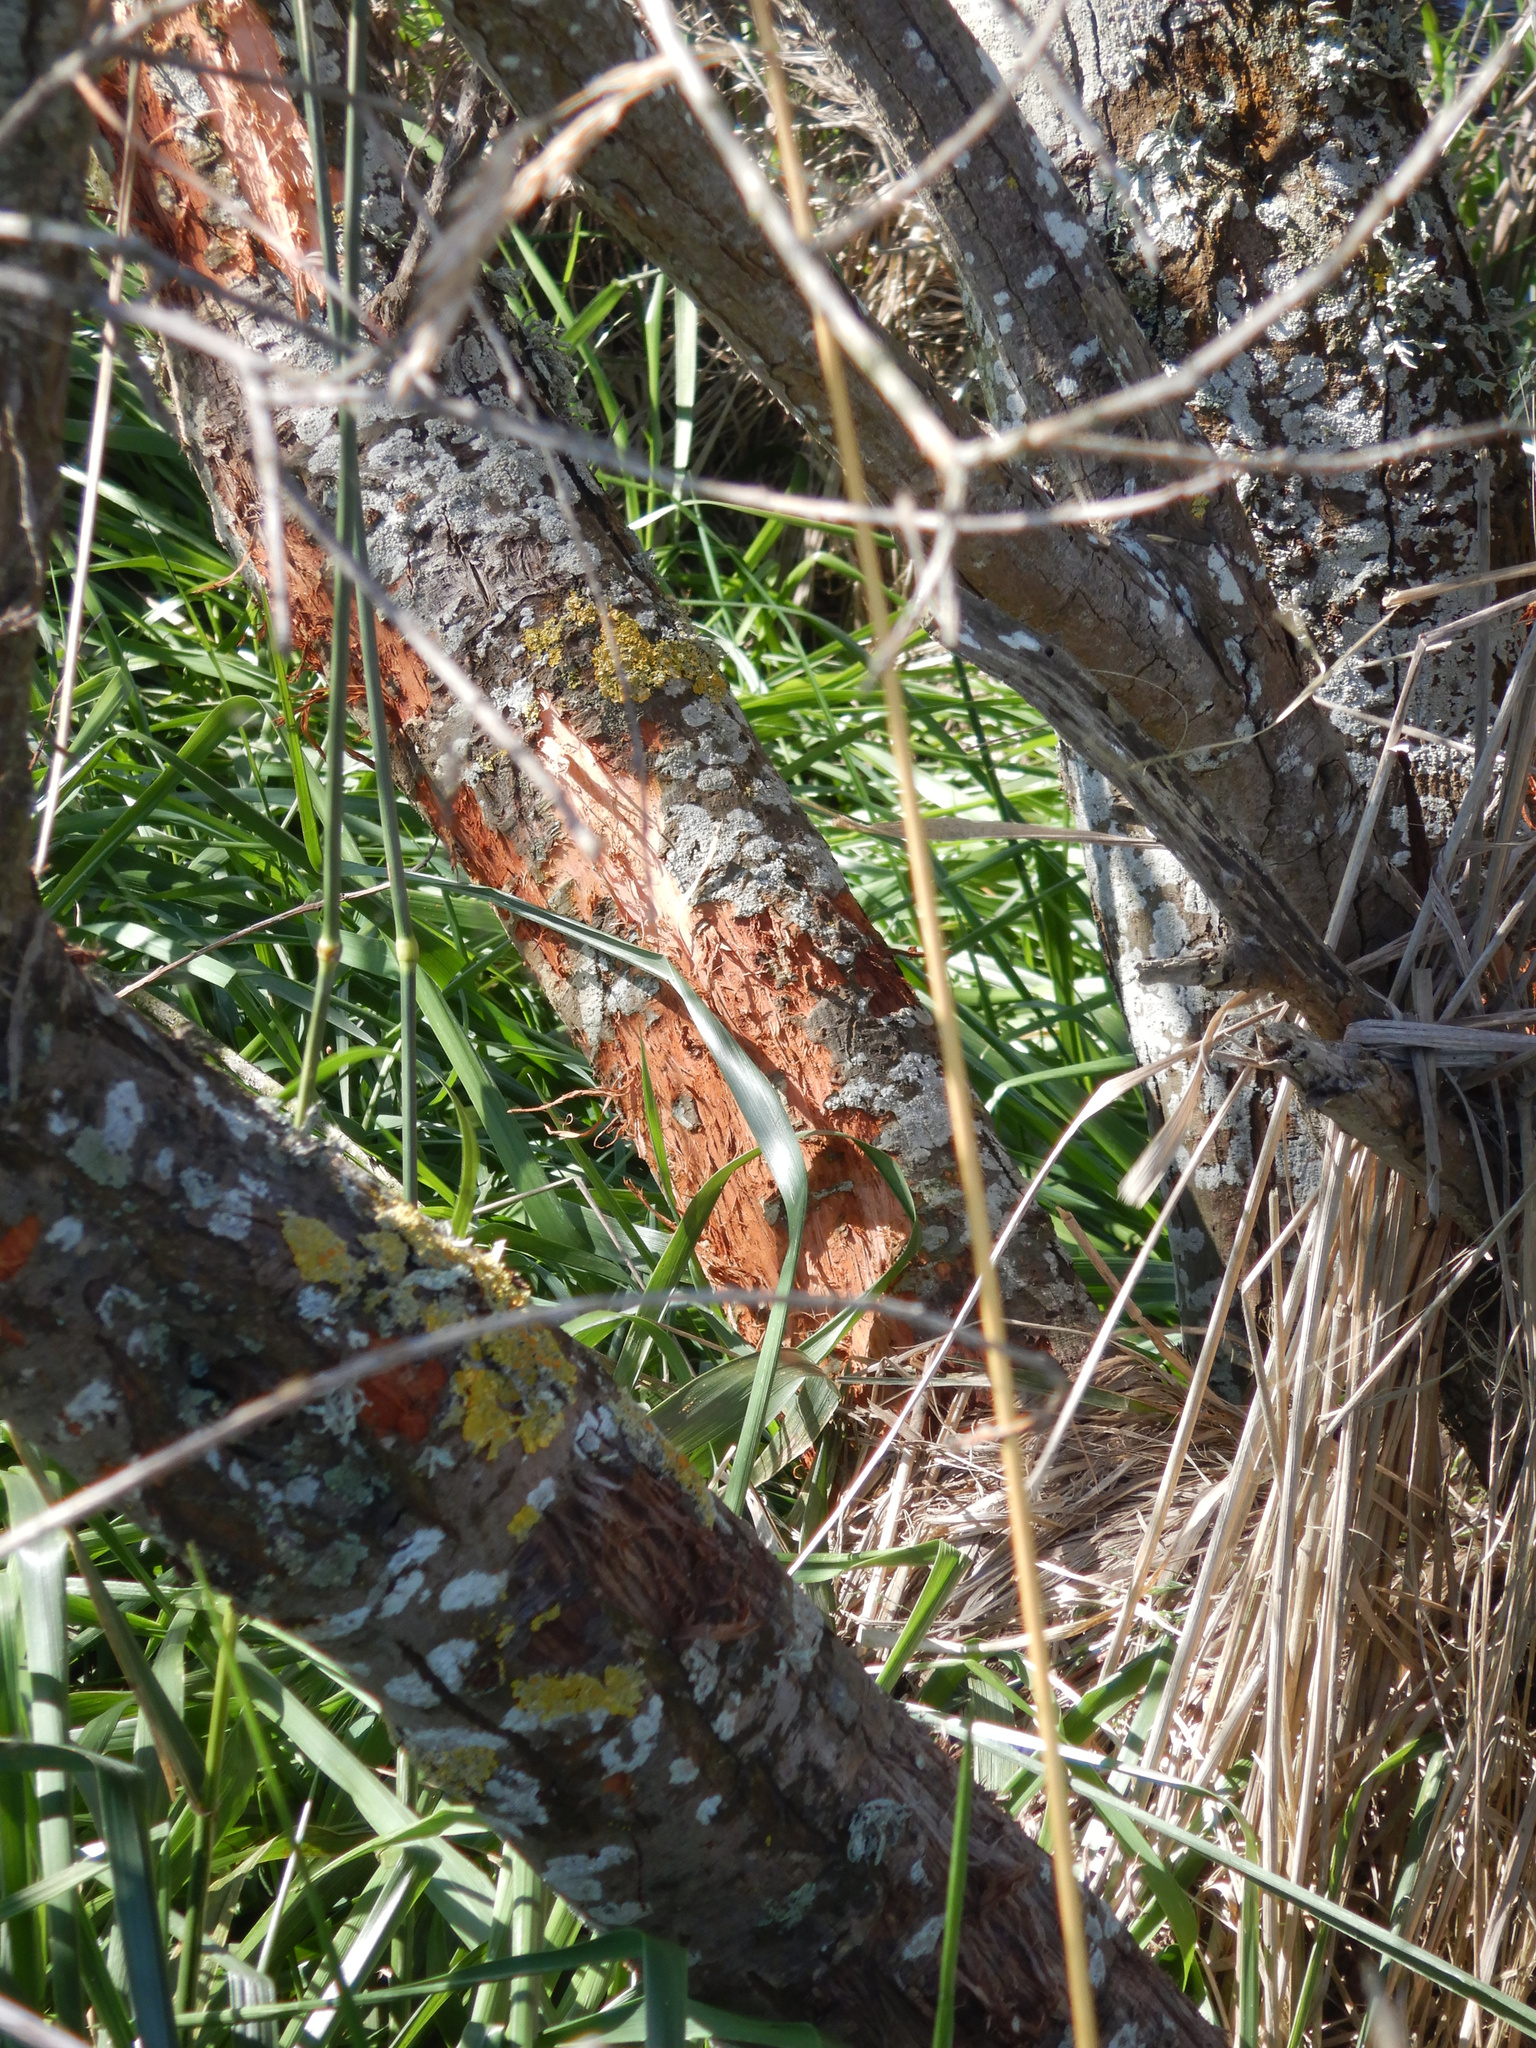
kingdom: Animalia
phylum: Chordata
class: Mammalia
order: Diprotodontia
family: Phalangeridae
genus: Trichosurus
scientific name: Trichosurus vulpecula
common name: Common brushtail
